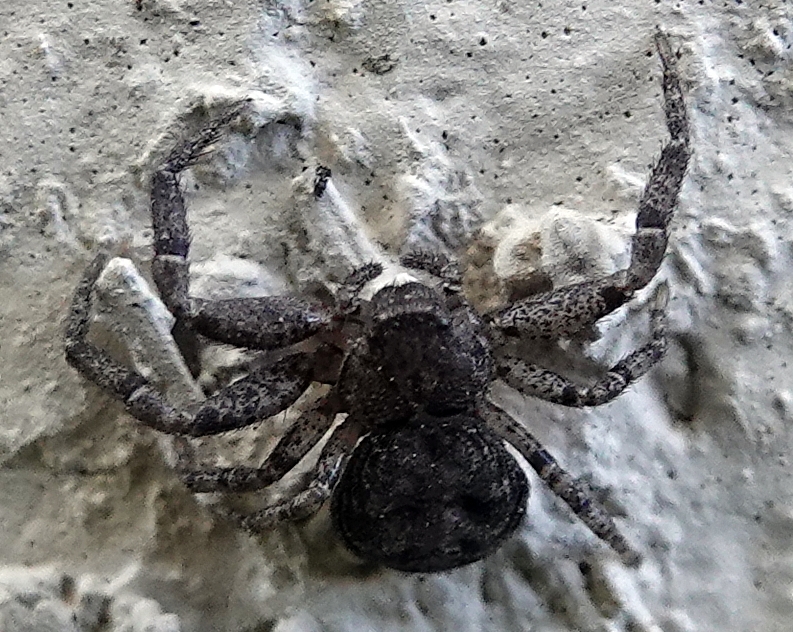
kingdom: Animalia
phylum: Arthropoda
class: Arachnida
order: Araneae
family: Thomisidae
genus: Bassaniana
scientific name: Bassaniana utahensis
